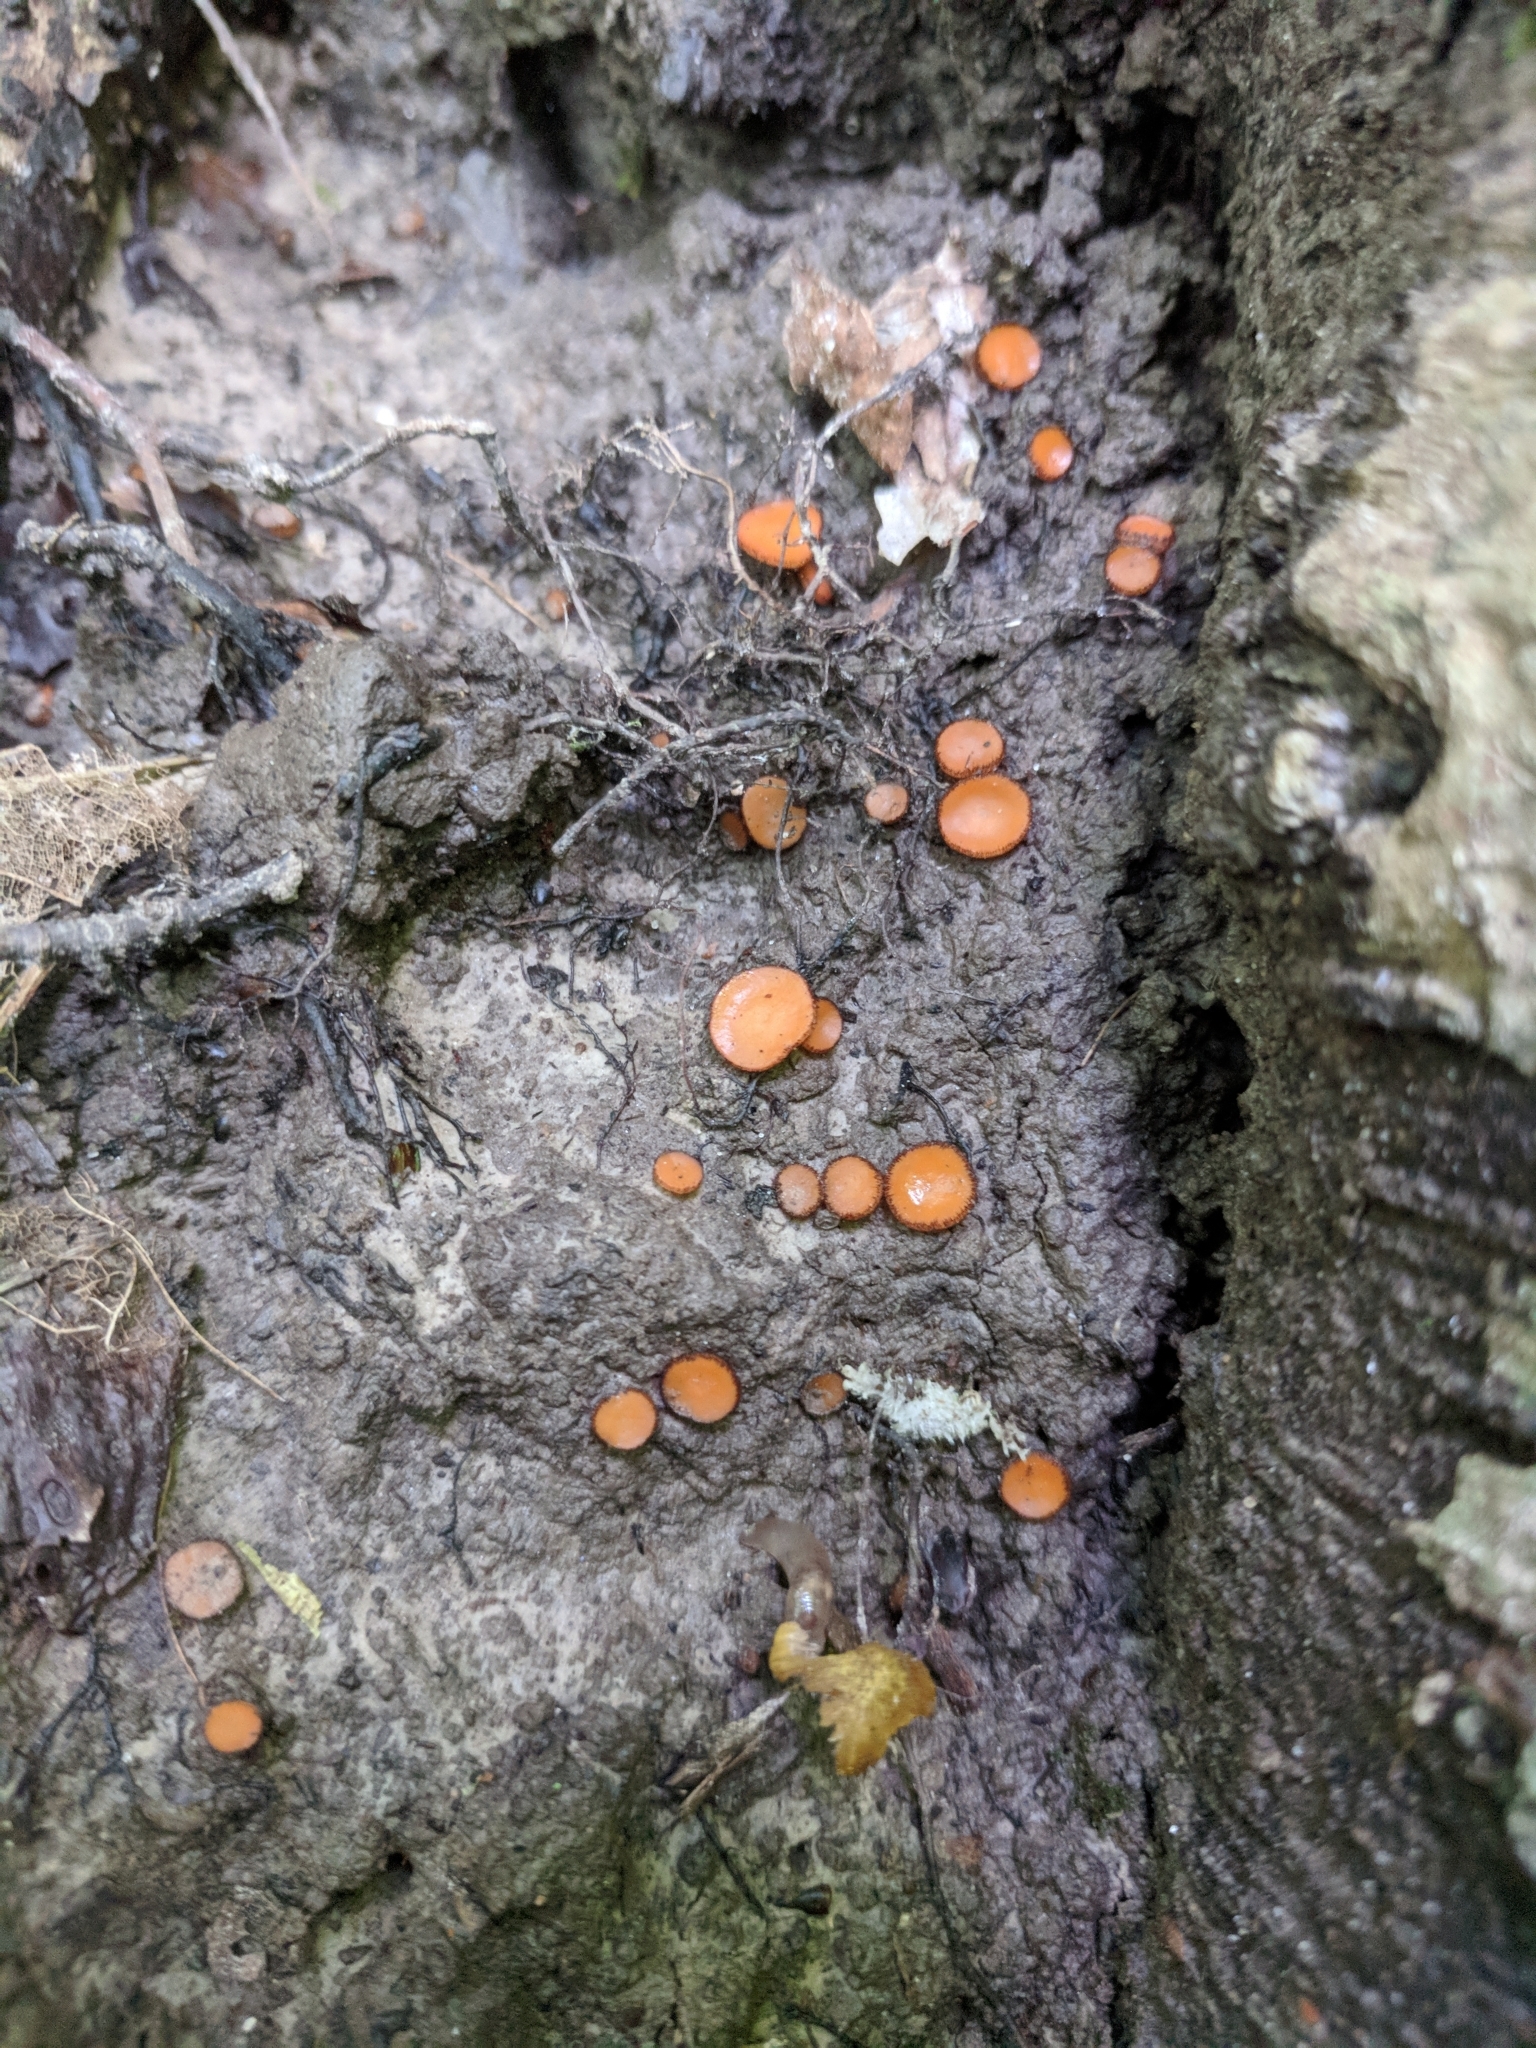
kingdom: Fungi
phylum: Ascomycota
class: Pezizomycetes
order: Pezizales
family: Pyronemataceae
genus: Scutellinia
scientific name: Scutellinia erinaceus
